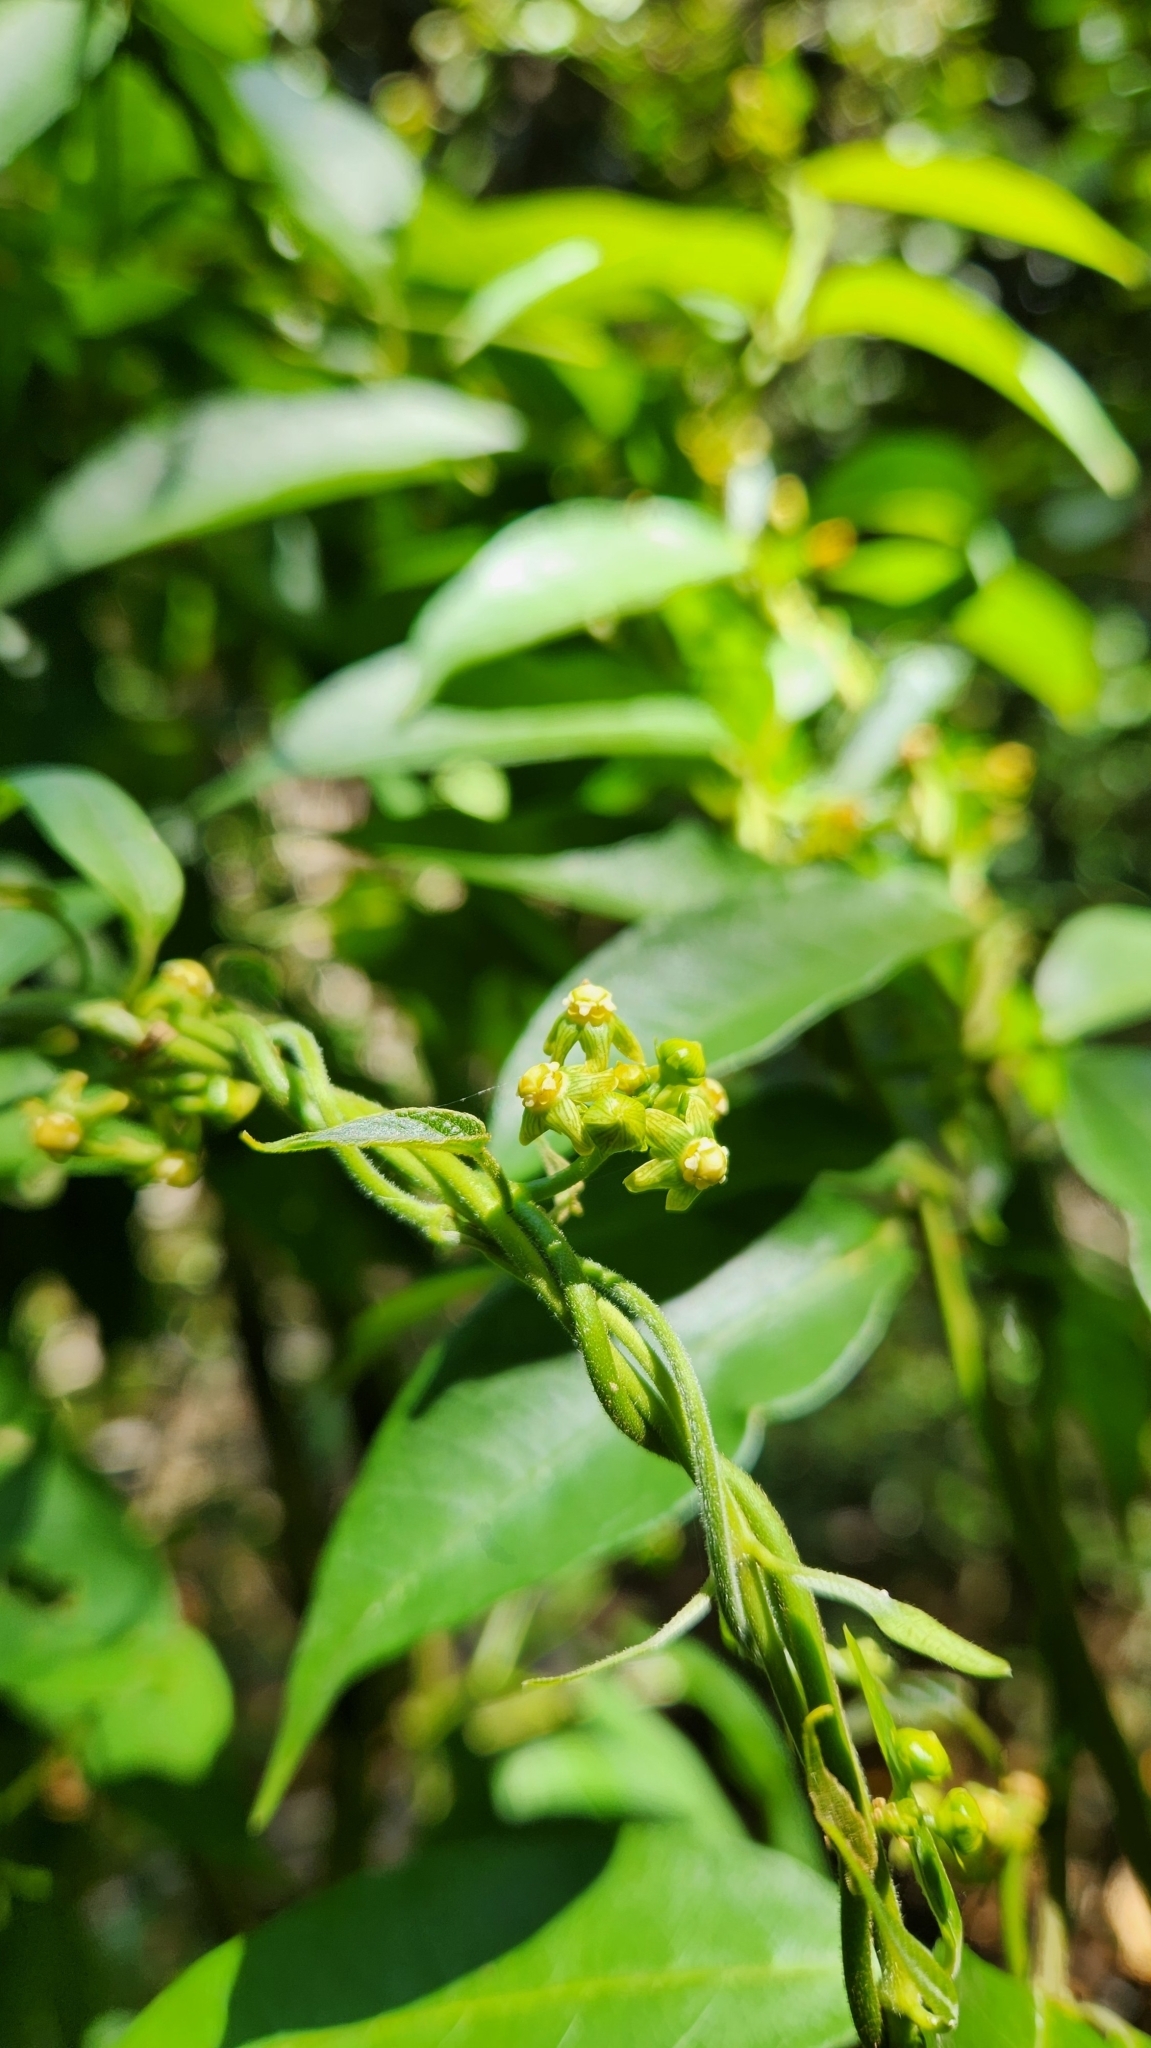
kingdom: Plantae
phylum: Tracheophyta
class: Magnoliopsida
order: Gentianales
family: Apocynaceae
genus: Gonolobus
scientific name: Gonolobus parviflorus
